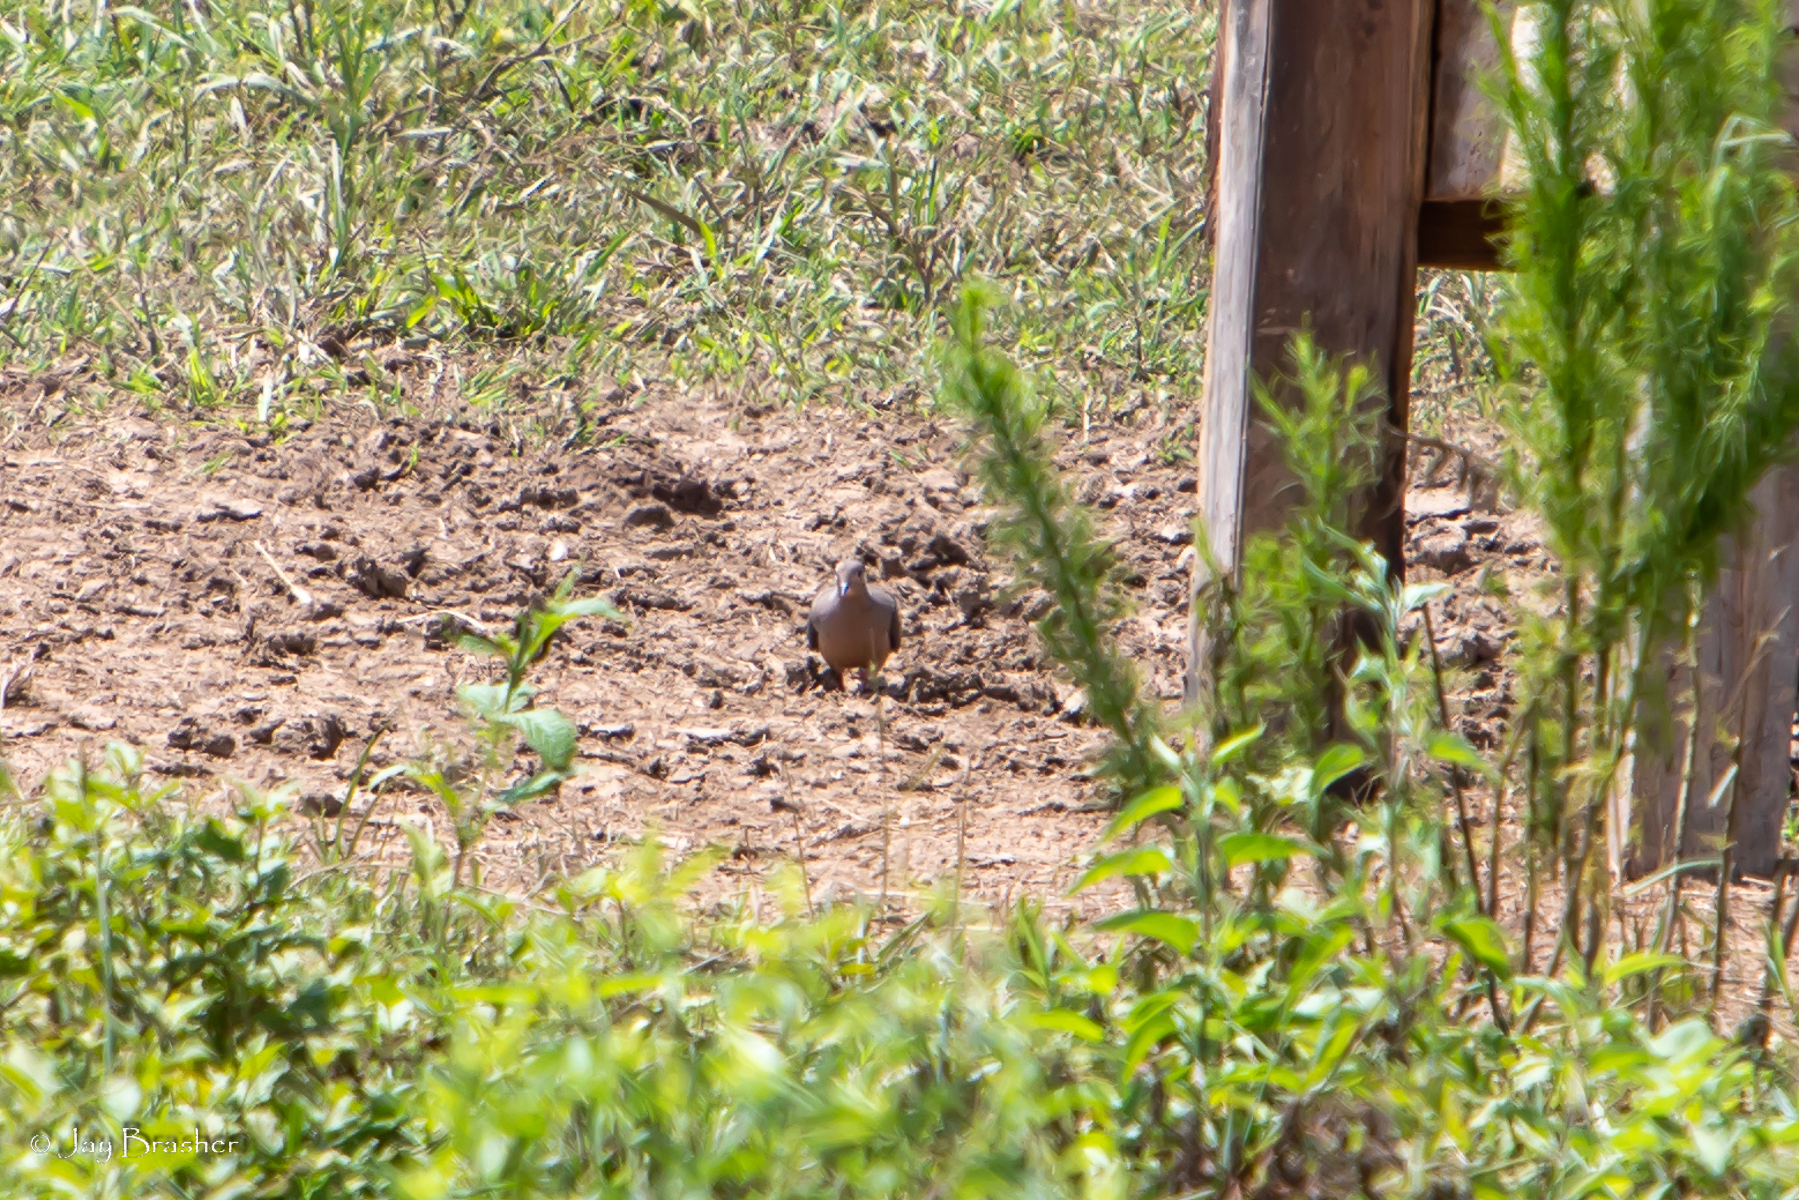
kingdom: Animalia
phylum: Chordata
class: Aves
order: Columbiformes
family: Columbidae
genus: Zenaida
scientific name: Zenaida macroura
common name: Mourning dove
